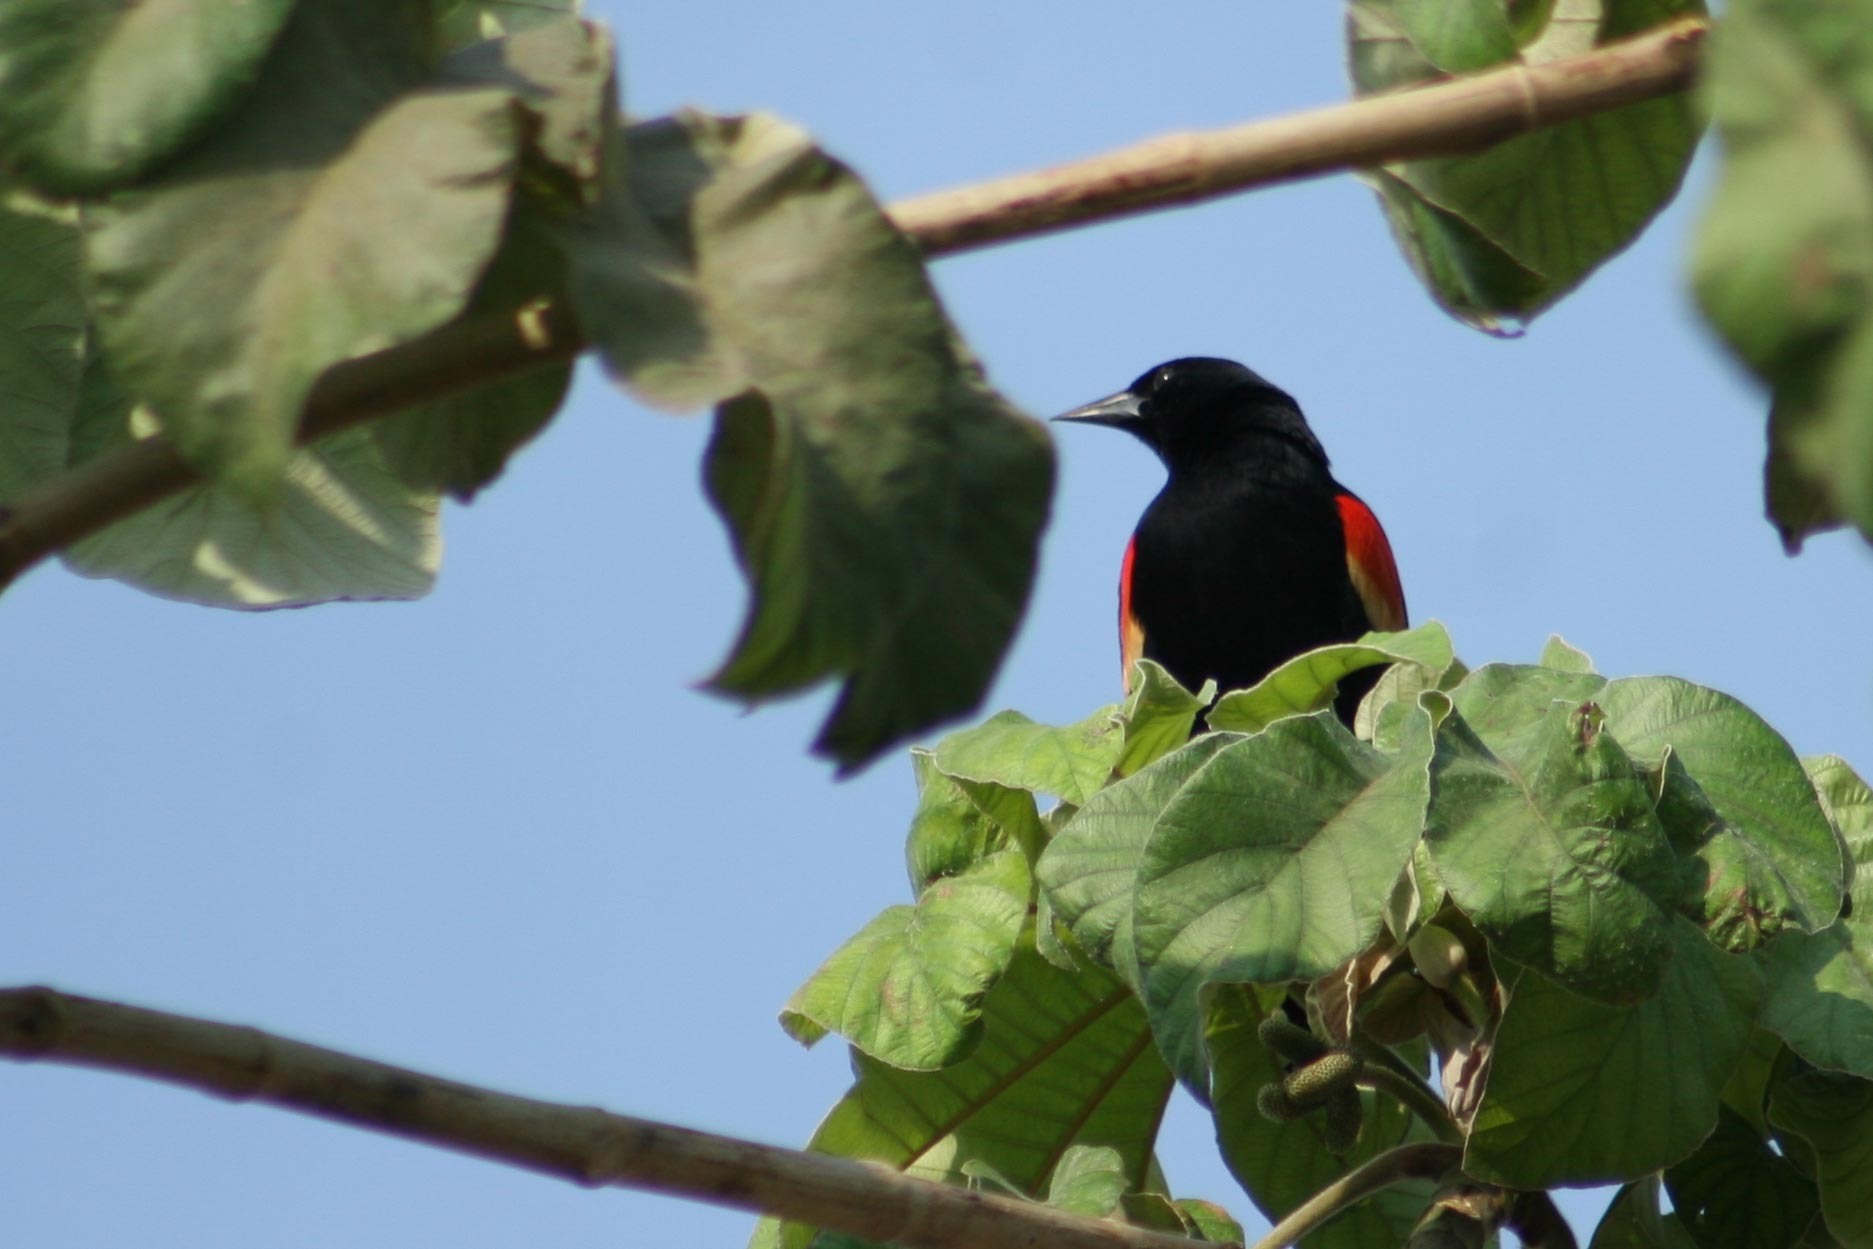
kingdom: Animalia
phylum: Chordata
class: Aves
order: Passeriformes
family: Icteridae
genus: Agelaius
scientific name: Agelaius phoeniceus
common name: Red-winged blackbird
